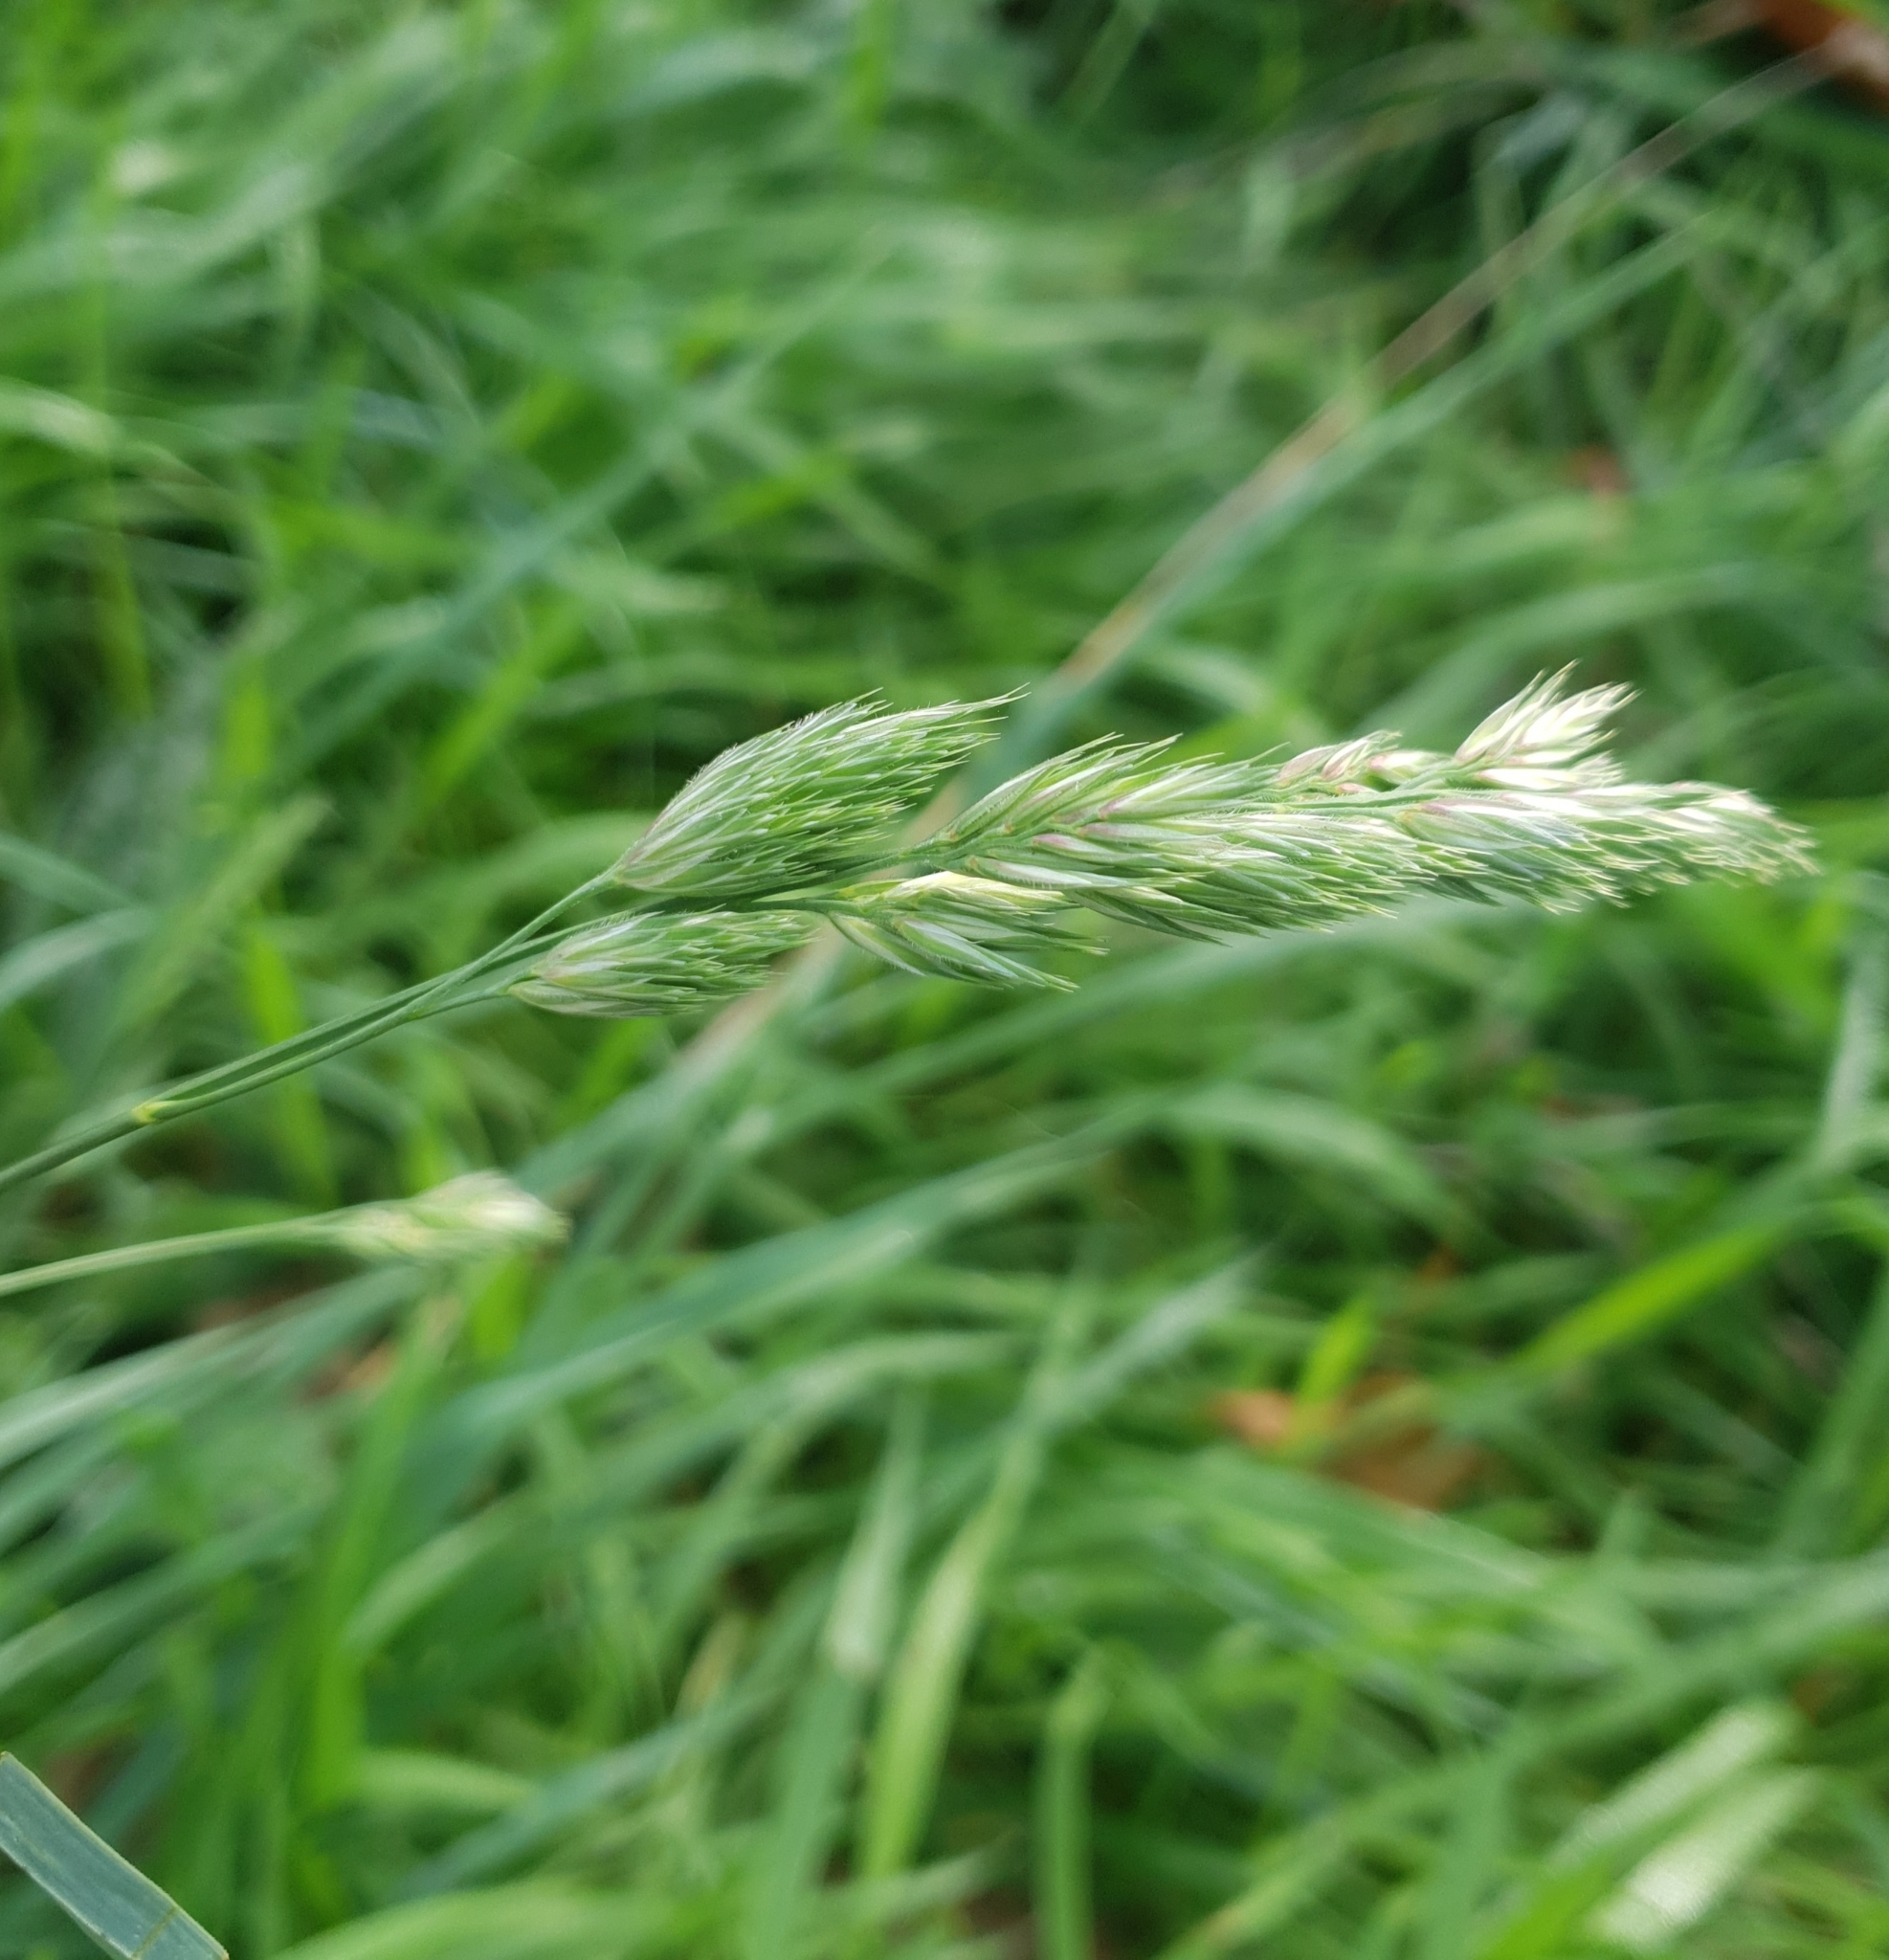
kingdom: Plantae
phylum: Tracheophyta
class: Liliopsida
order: Poales
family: Poaceae
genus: Dactylis
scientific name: Dactylis glomerata
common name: Orchardgrass
